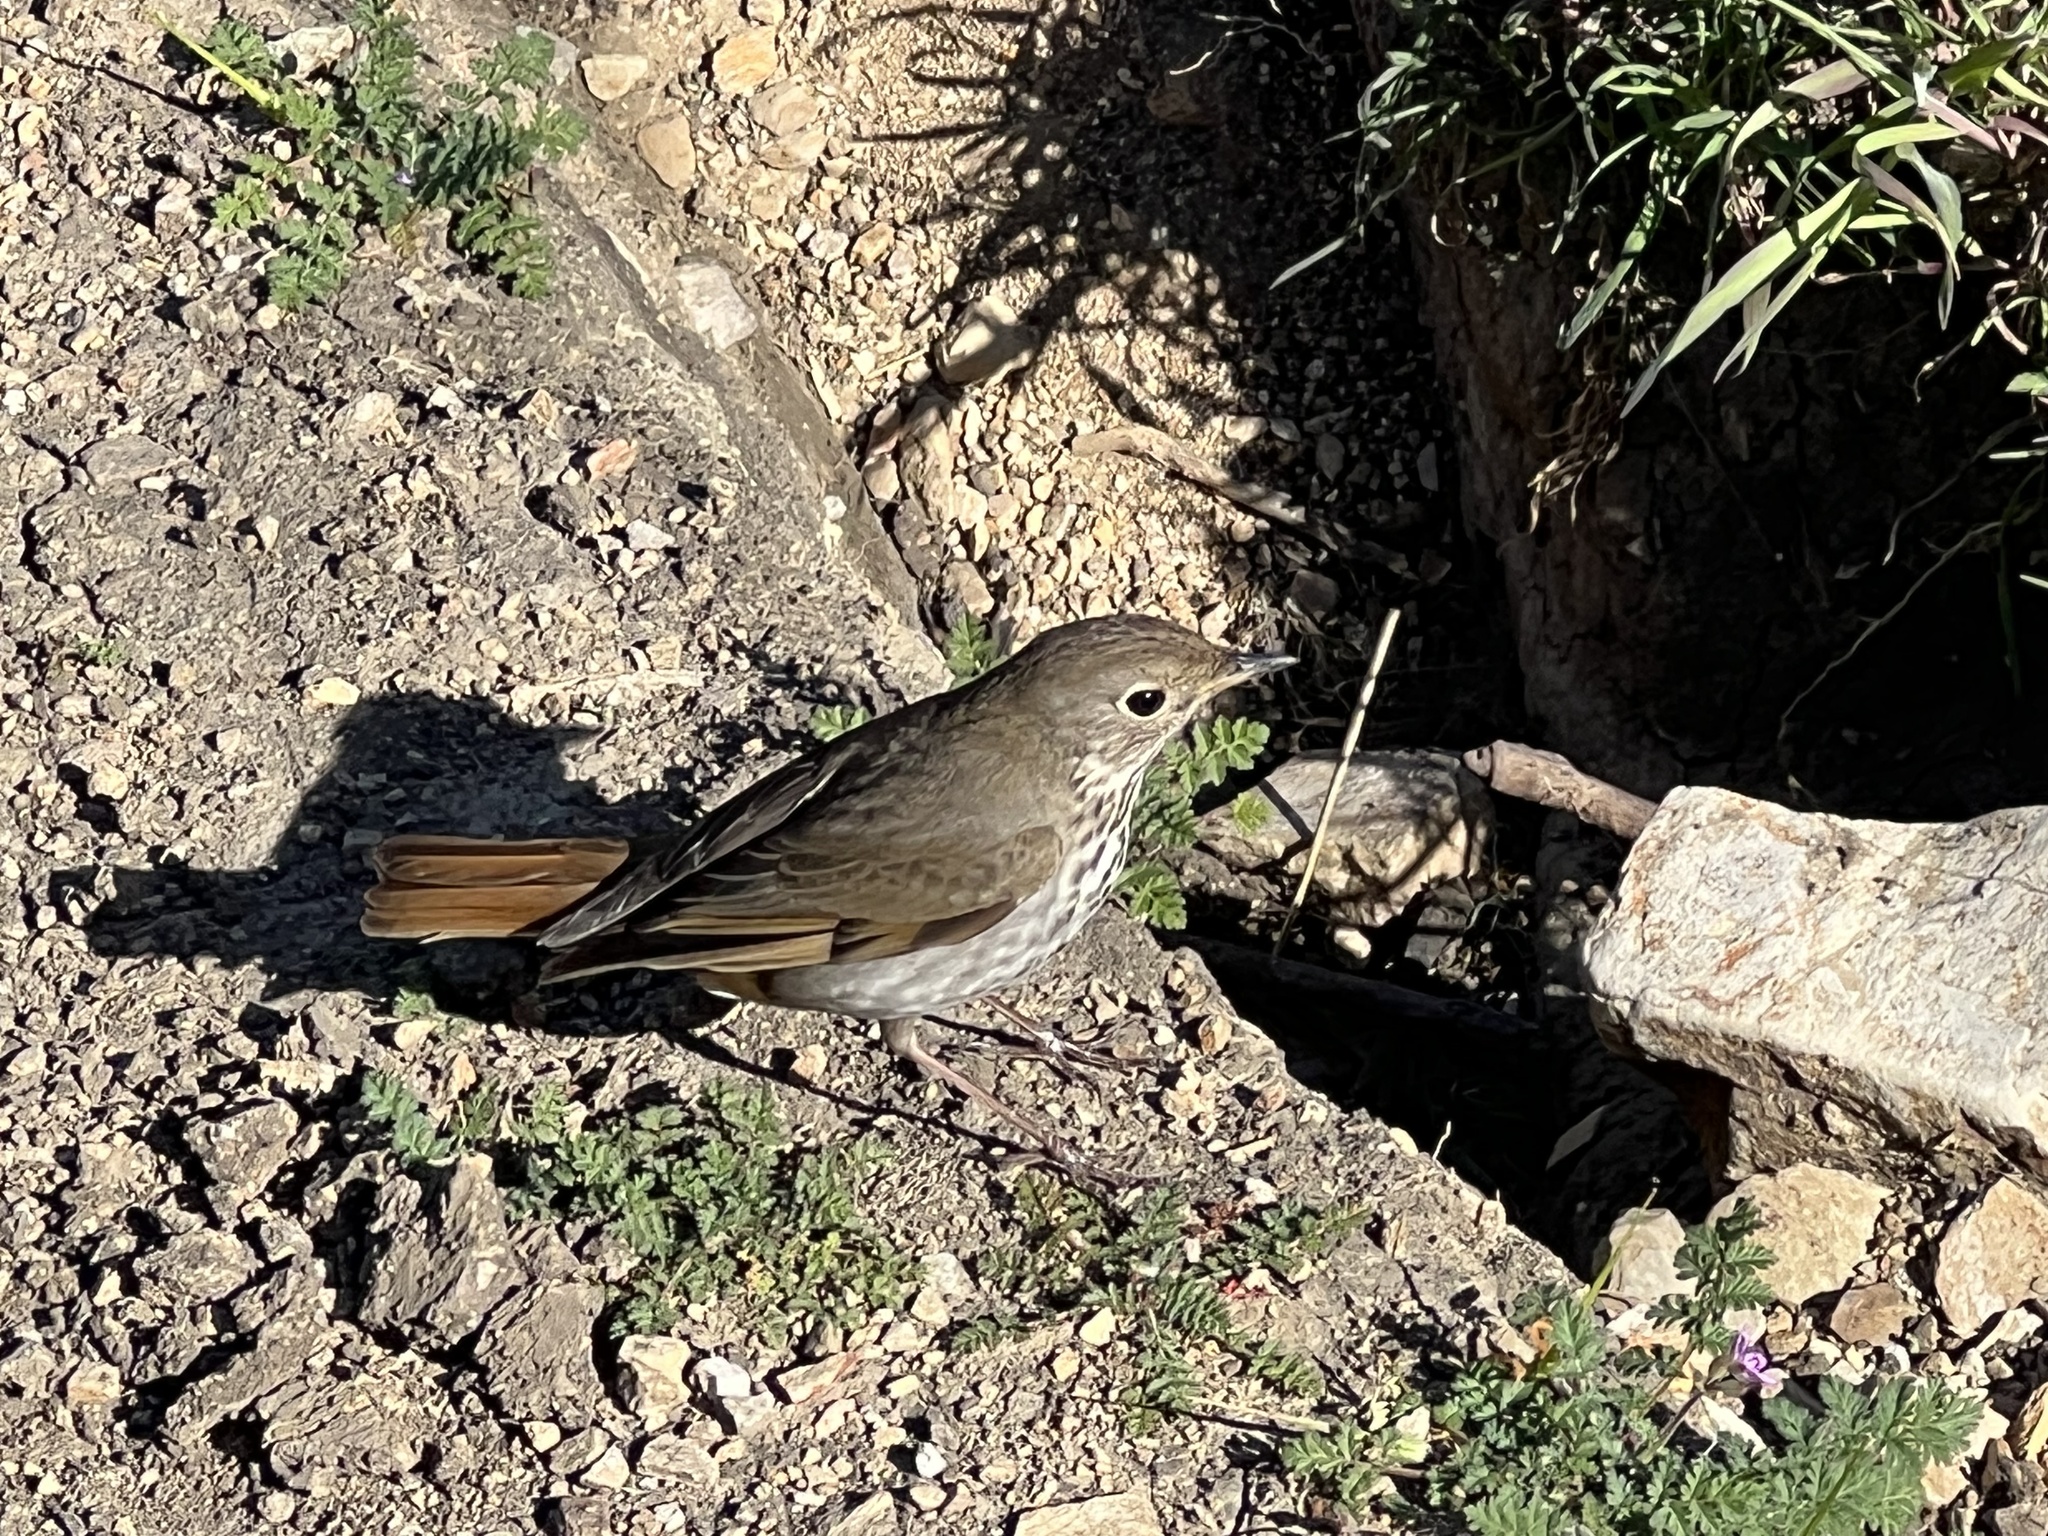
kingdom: Animalia
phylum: Chordata
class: Aves
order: Passeriformes
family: Turdidae
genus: Catharus
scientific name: Catharus guttatus
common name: Hermit thrush
